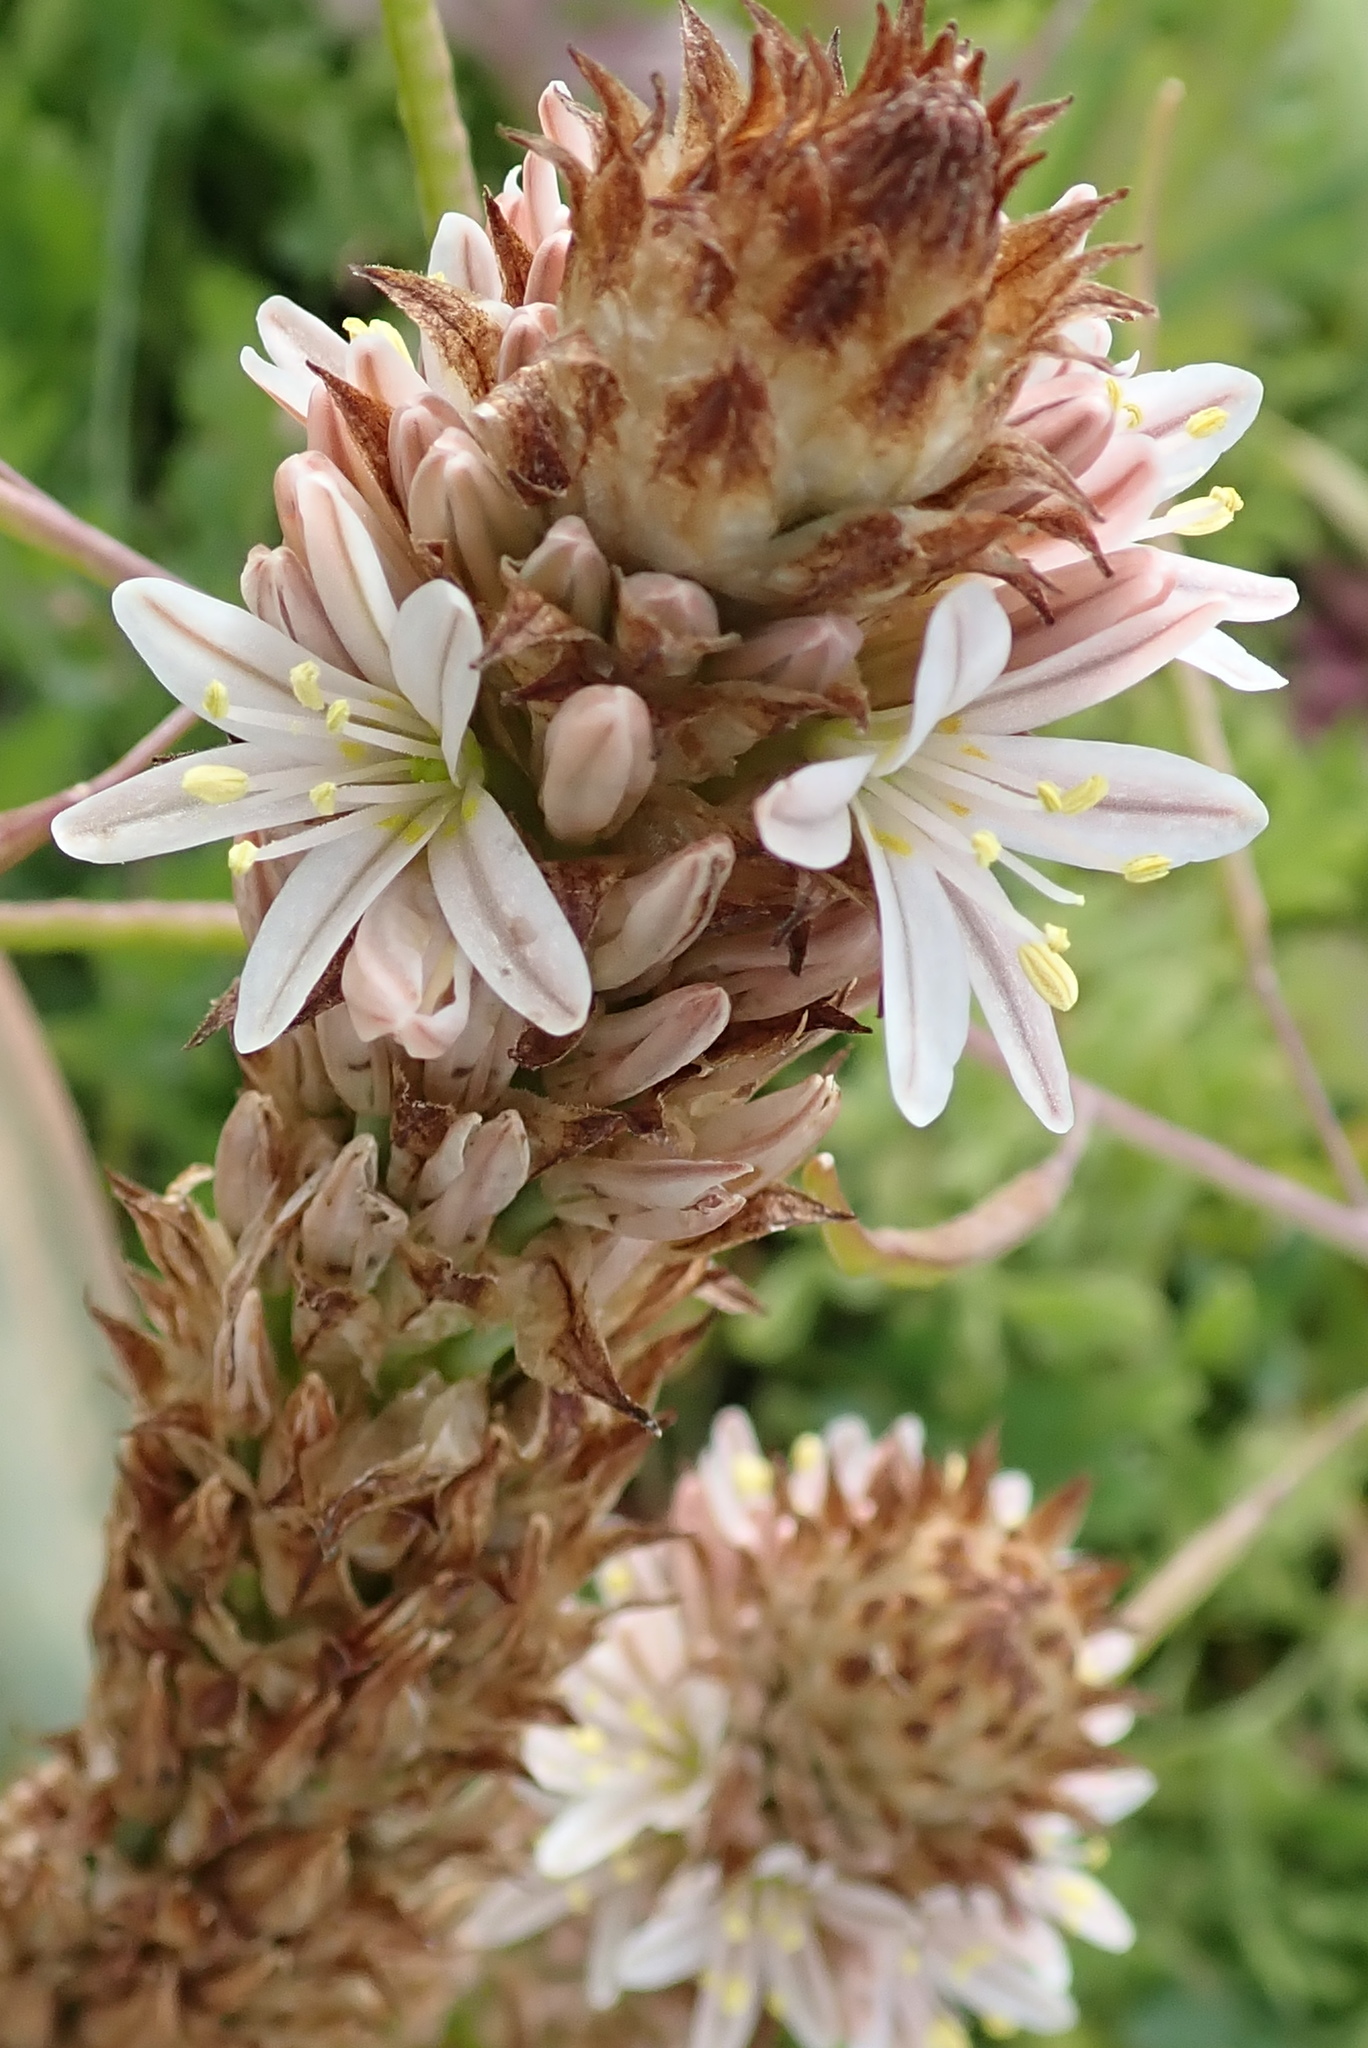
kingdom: Plantae
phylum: Tracheophyta
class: Liliopsida
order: Asparagales
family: Asphodelaceae
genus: Trachyandra
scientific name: Trachyandra falcata
